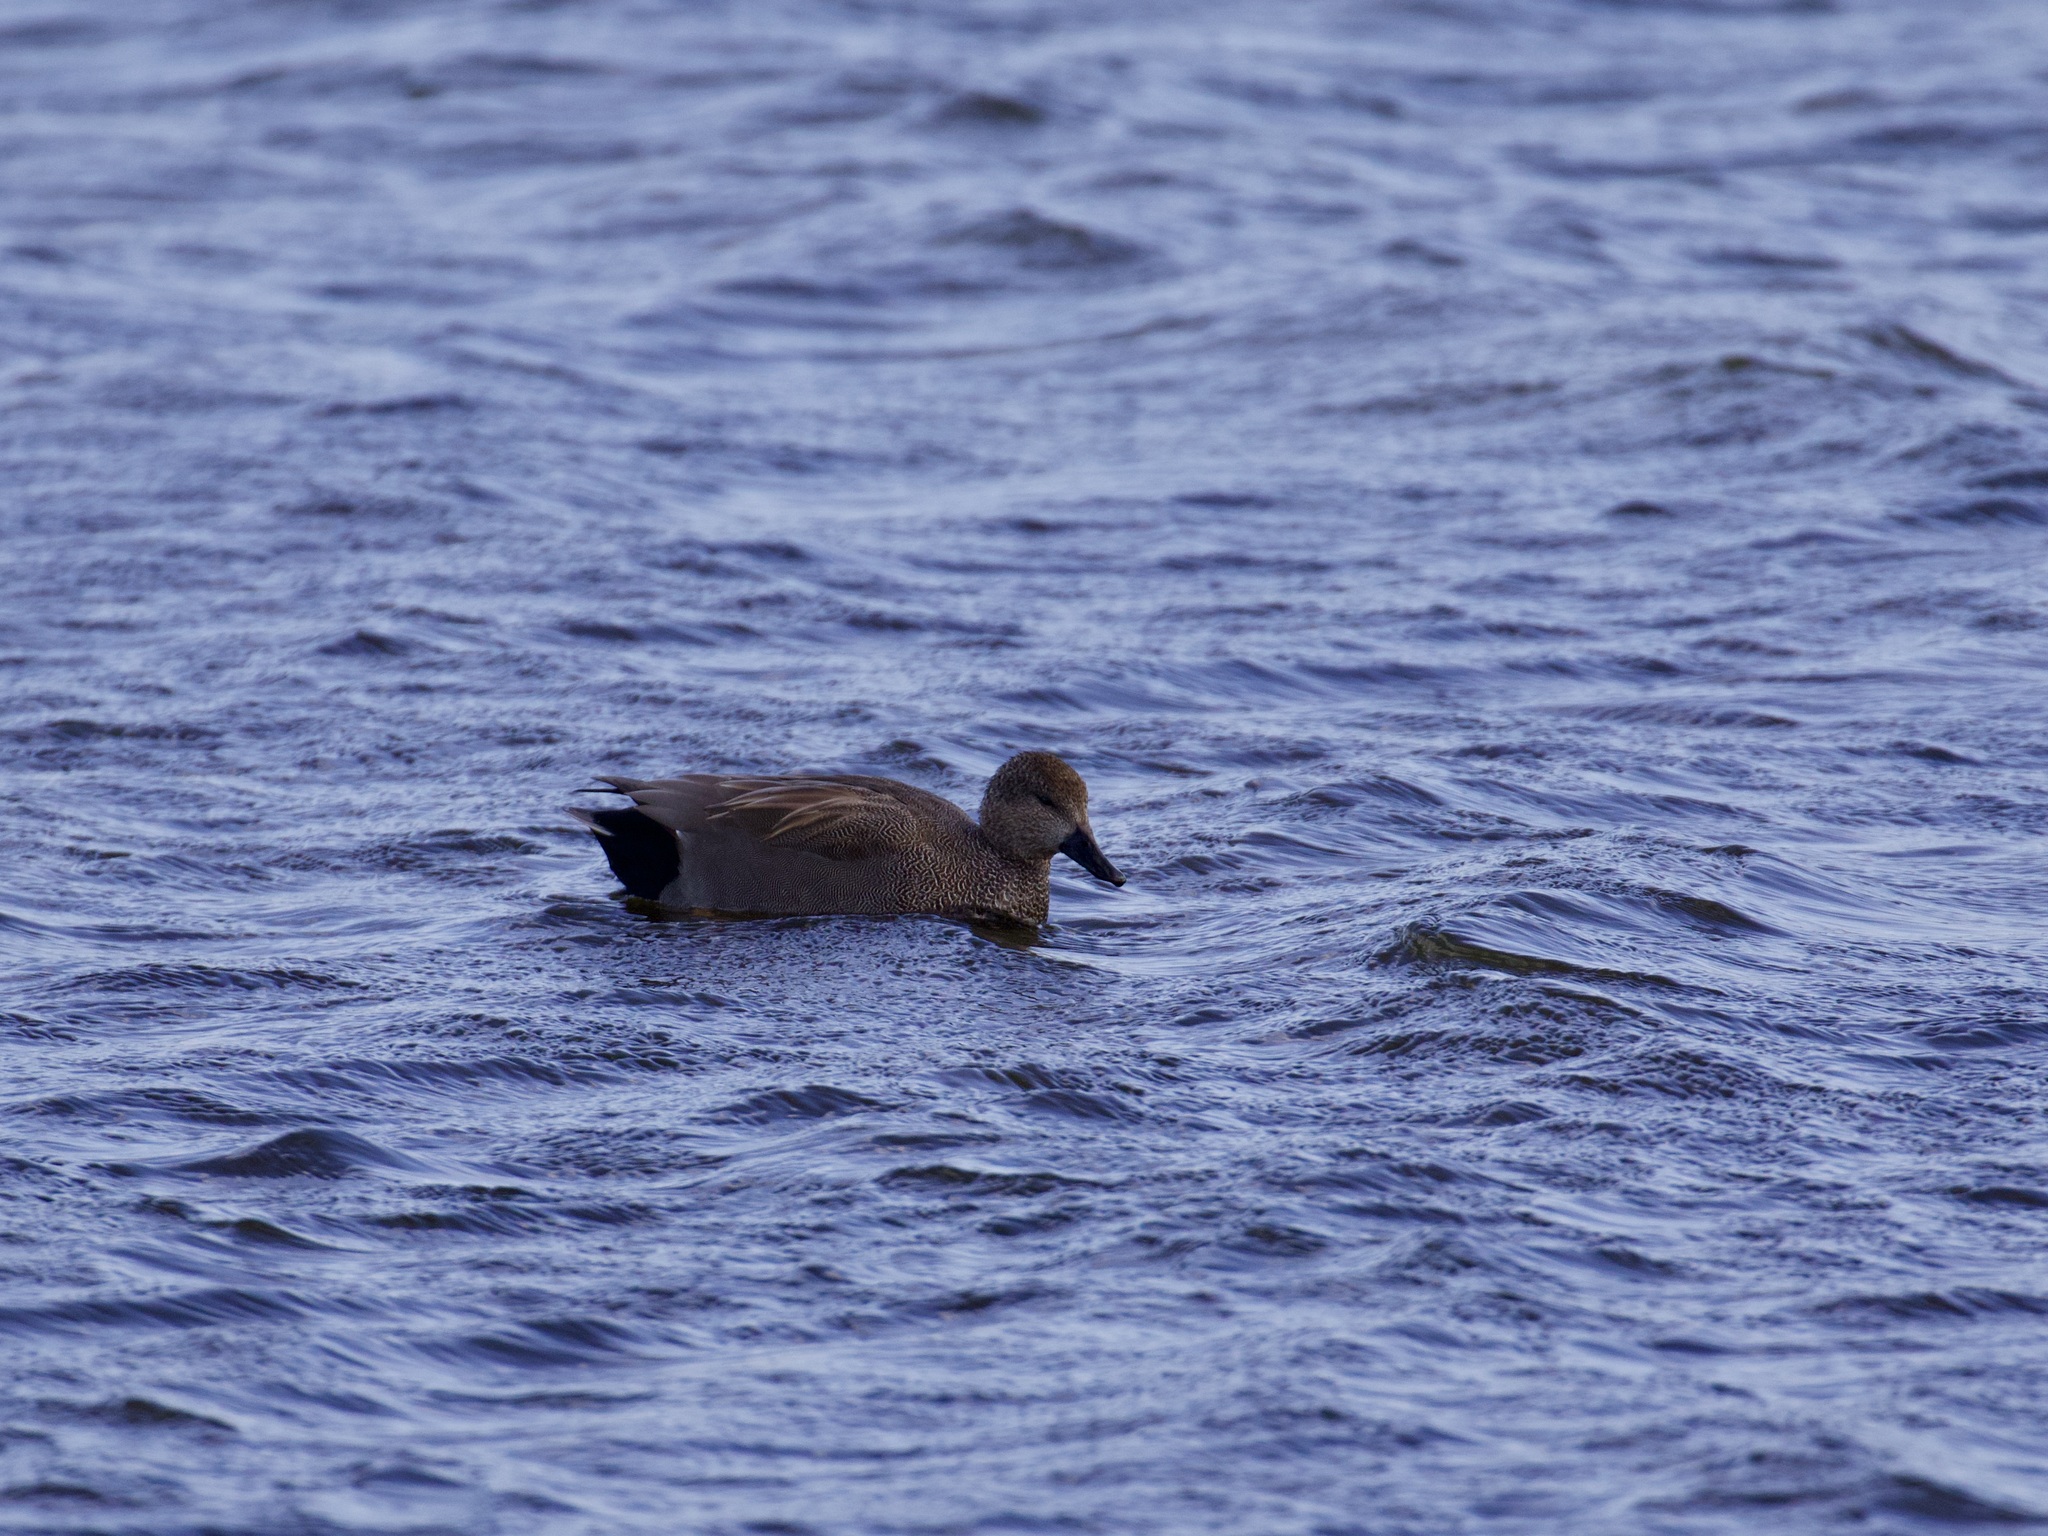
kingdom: Animalia
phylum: Chordata
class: Aves
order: Anseriformes
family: Anatidae
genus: Mareca
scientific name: Mareca strepera
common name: Gadwall
